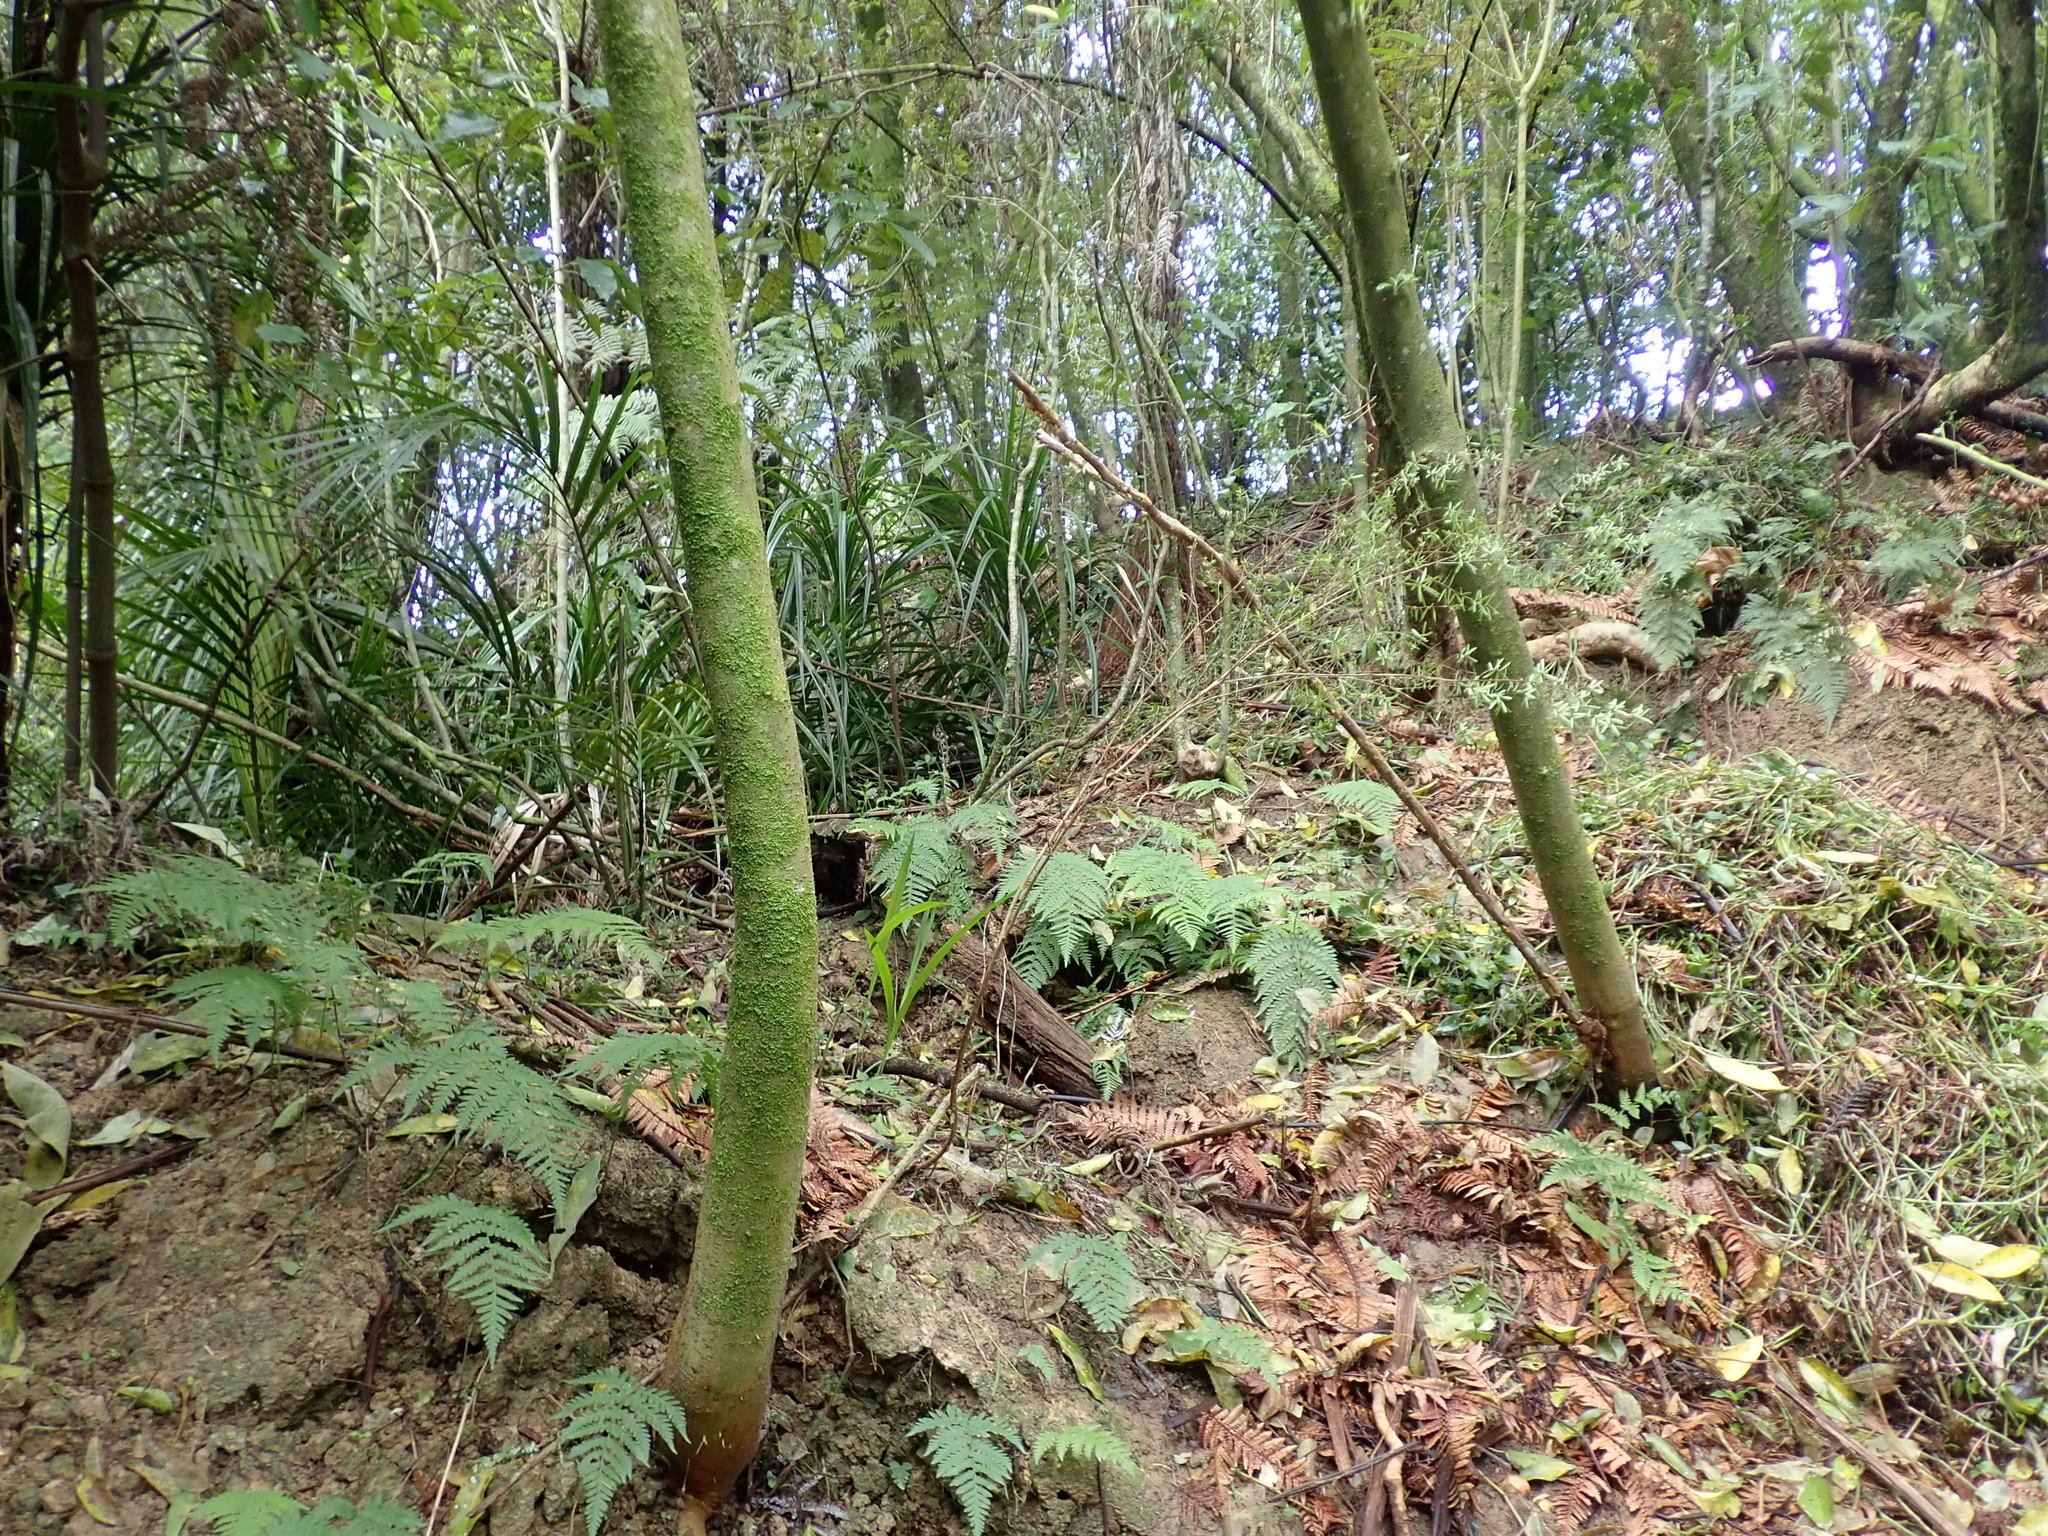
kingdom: Plantae
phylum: Tracheophyta
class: Liliopsida
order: Commelinales
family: Commelinaceae
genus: Tradescantia
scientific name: Tradescantia fluminensis
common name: Wandering-jew
